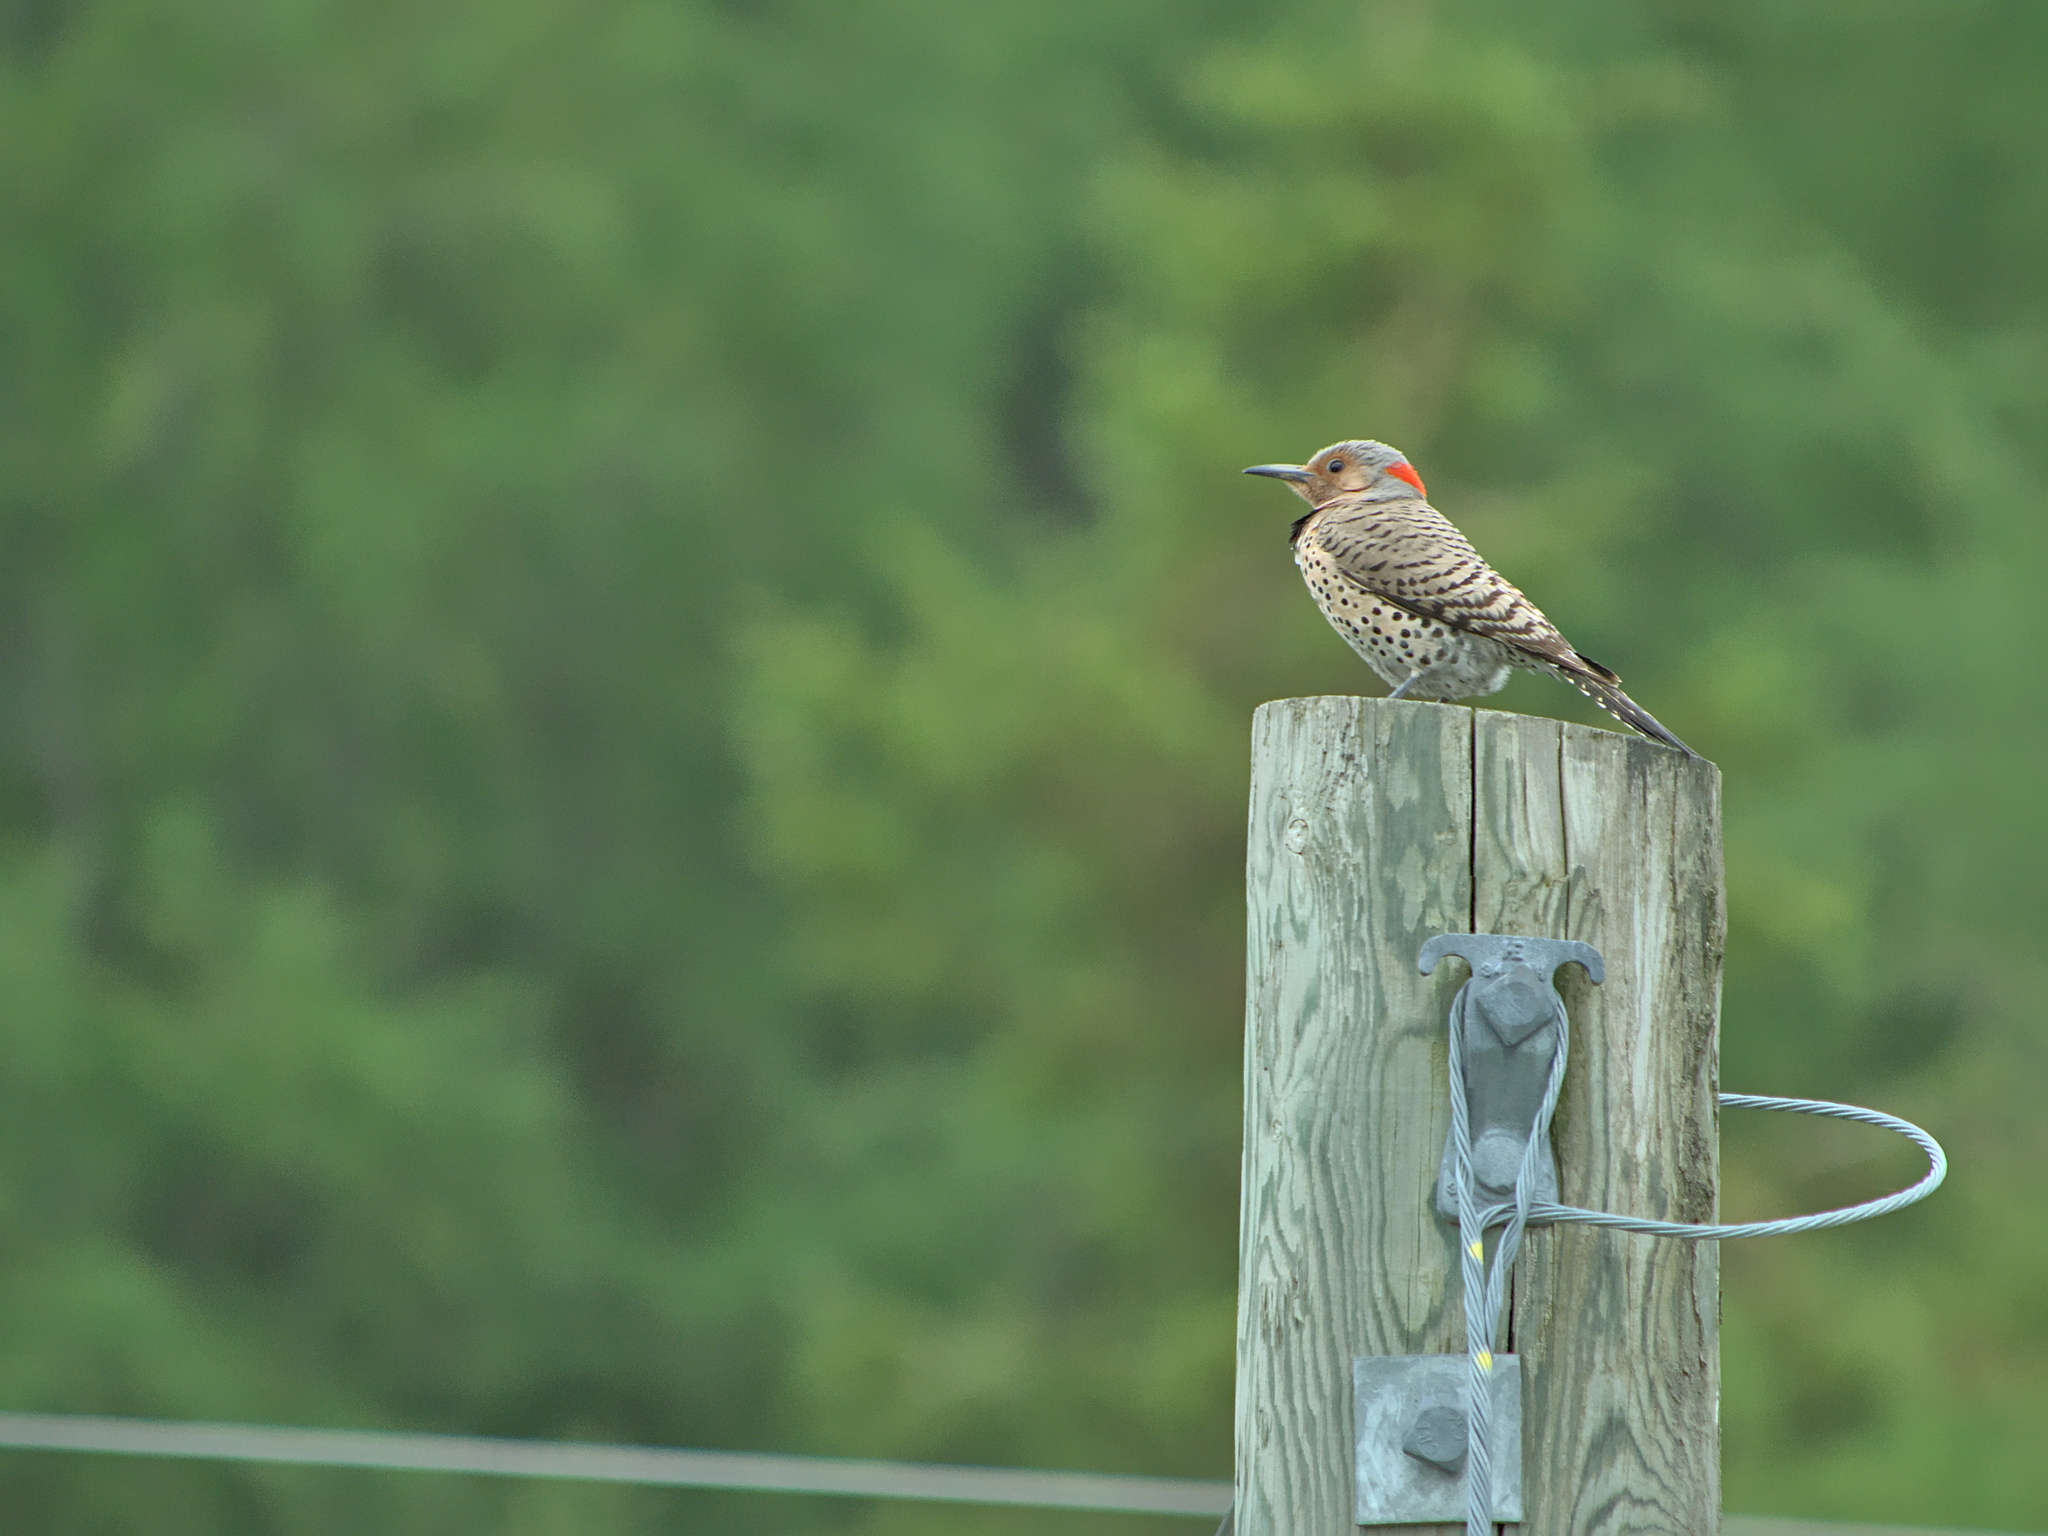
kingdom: Animalia
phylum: Chordata
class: Aves
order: Piciformes
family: Picidae
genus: Colaptes
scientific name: Colaptes auratus
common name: Northern flicker
